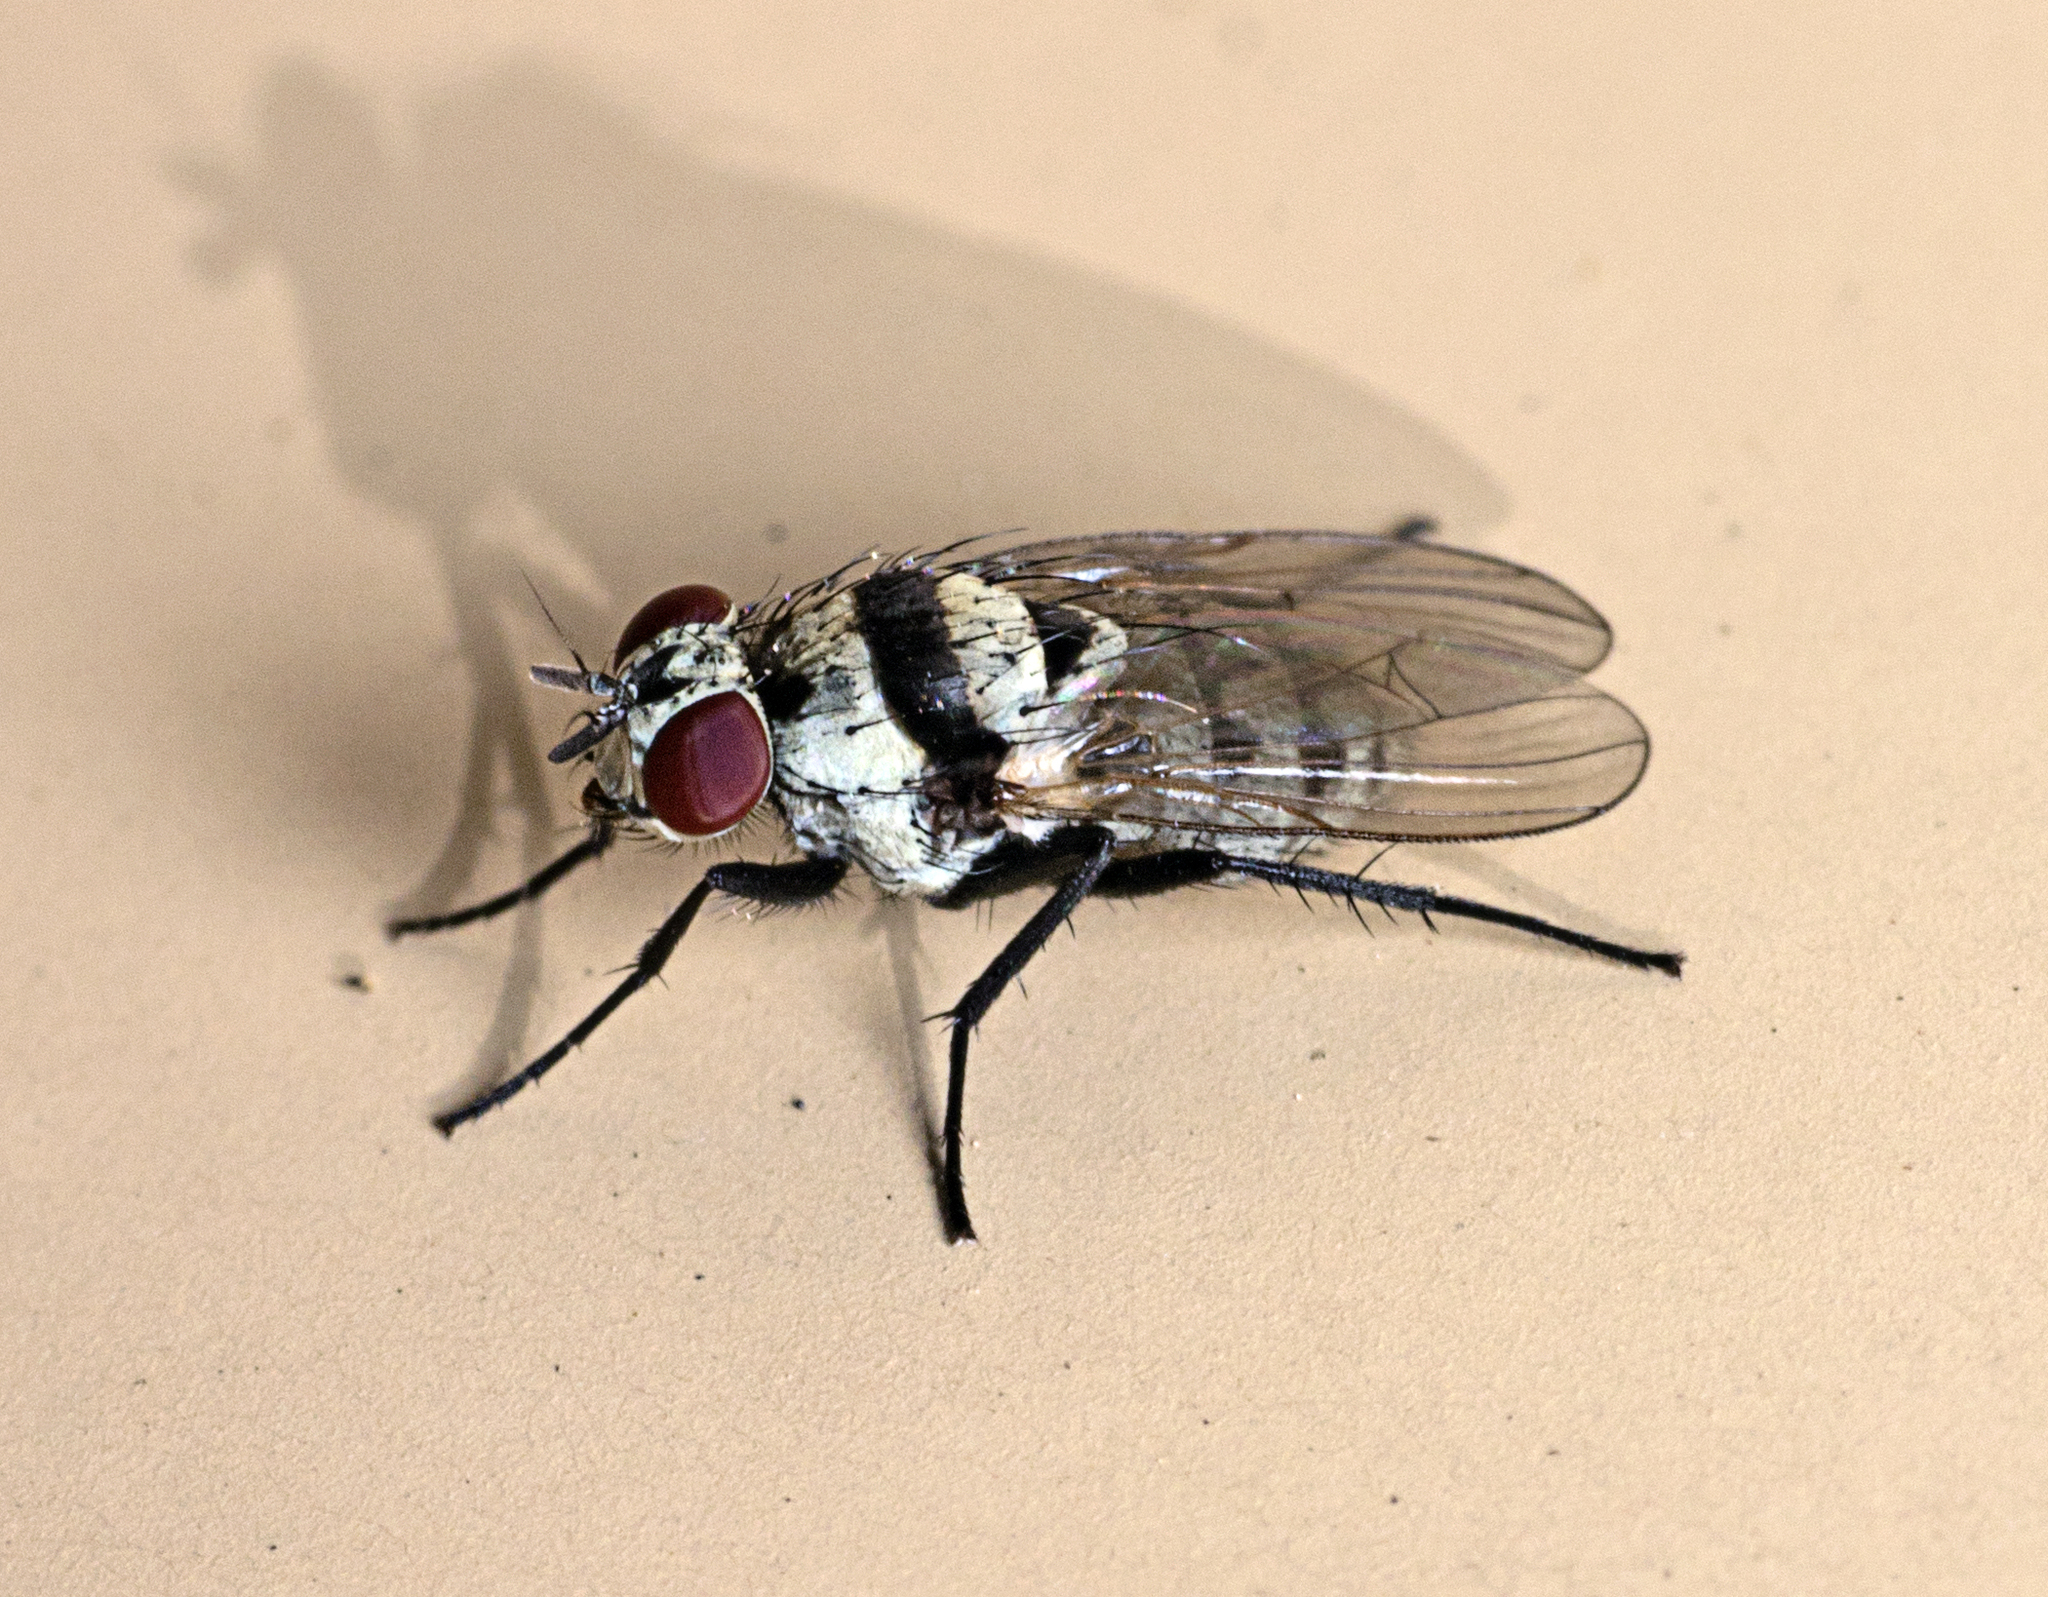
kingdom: Animalia
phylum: Arthropoda
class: Insecta
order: Diptera
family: Anthomyiidae
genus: Anthomyia
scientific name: Anthomyia silvestris
